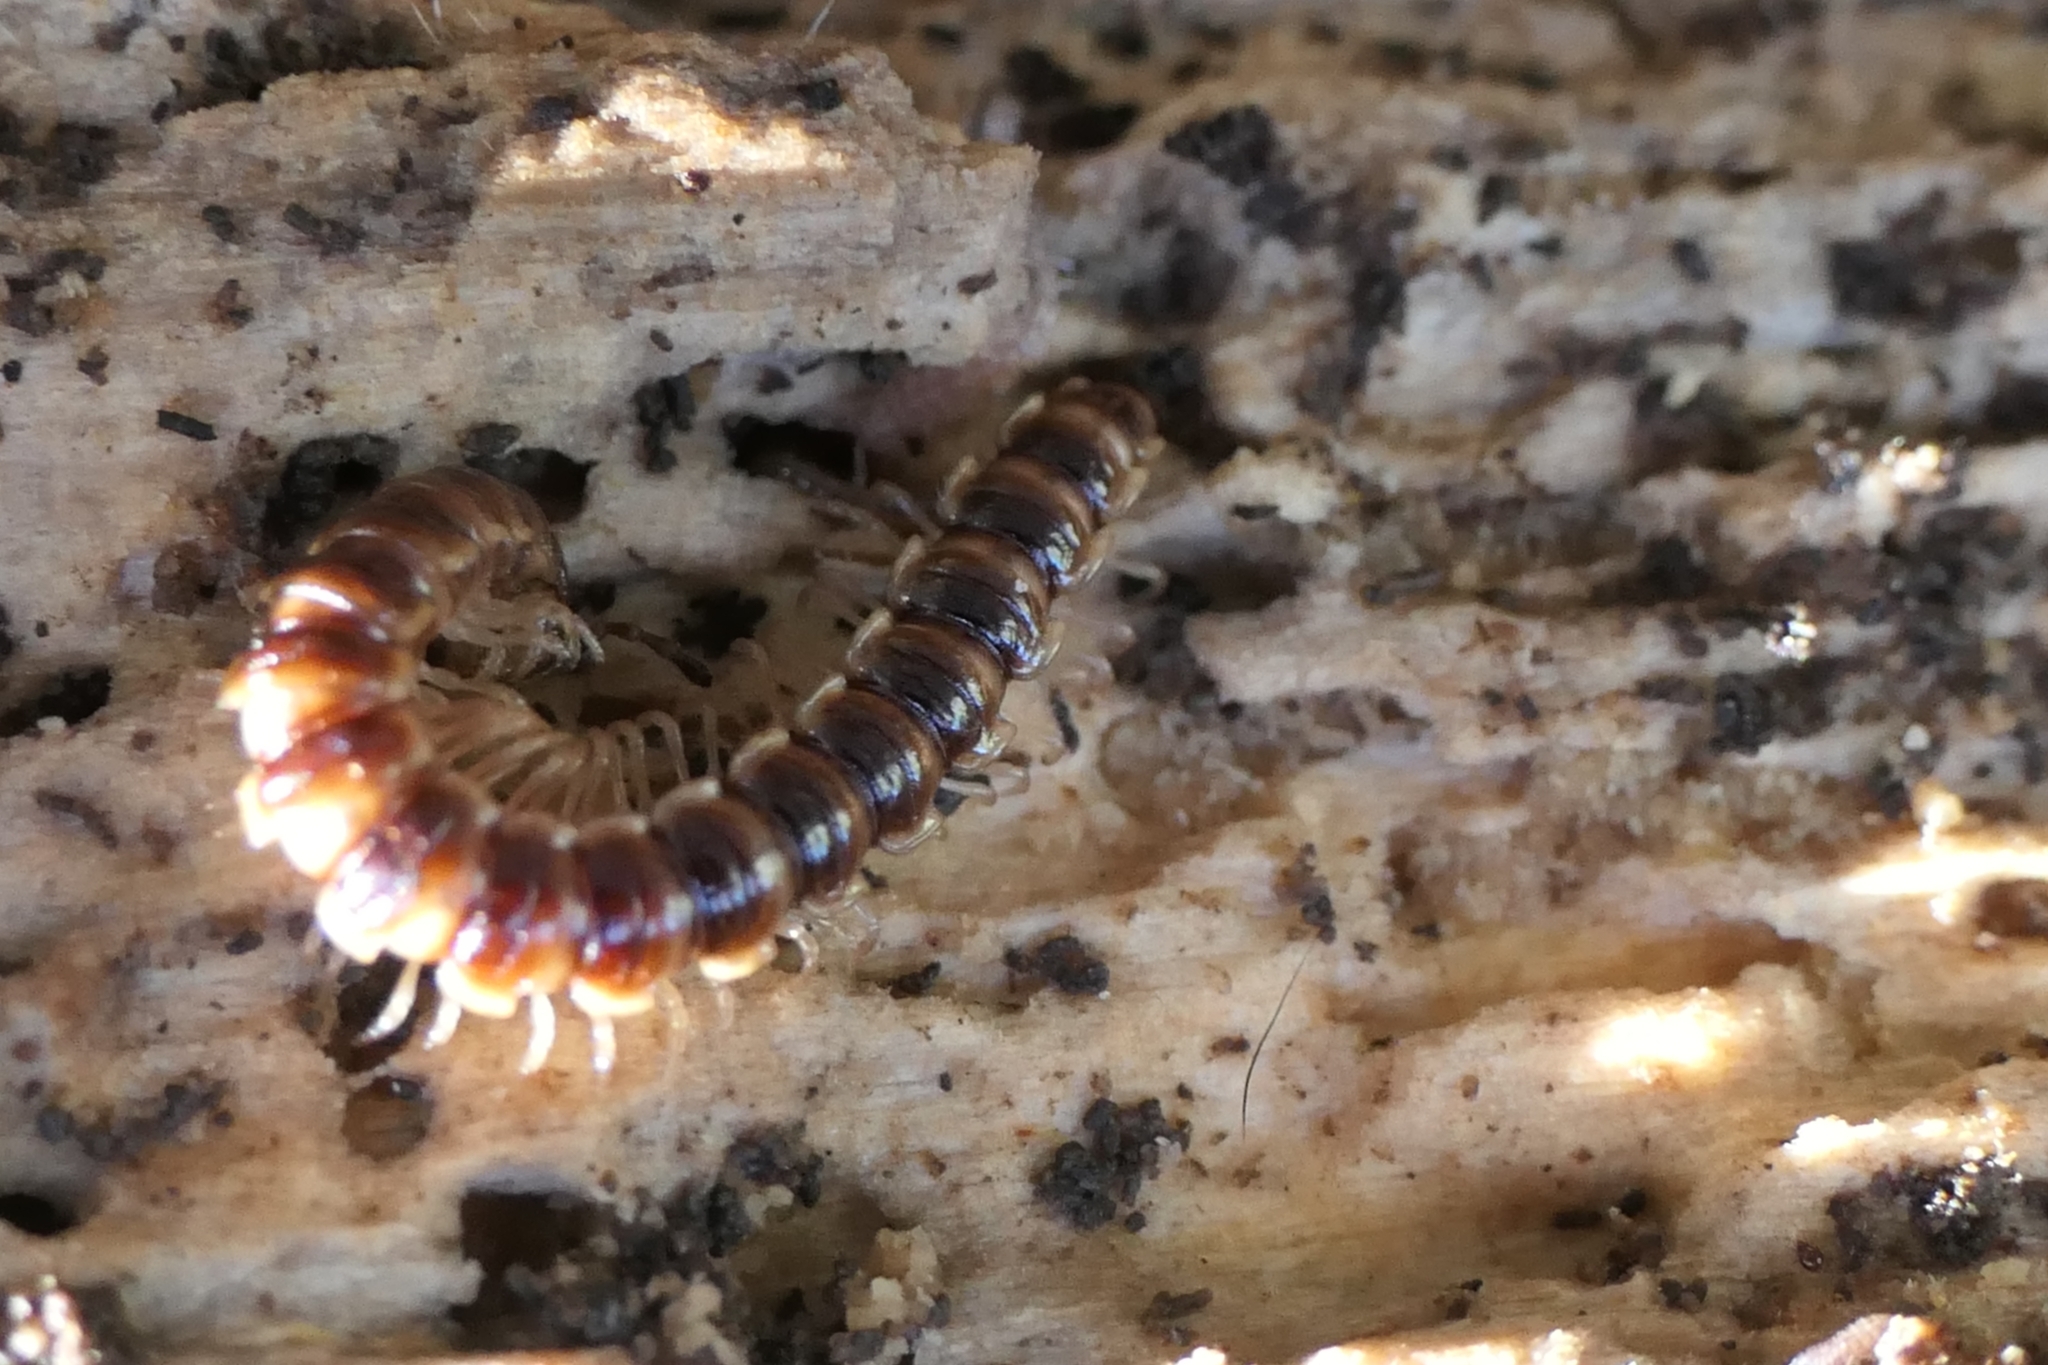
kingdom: Animalia
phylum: Arthropoda
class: Diplopoda
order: Polydesmida
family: Paradoxosomatidae
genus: Oxidus
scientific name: Oxidus gracilis
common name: Greenhouse millipede
